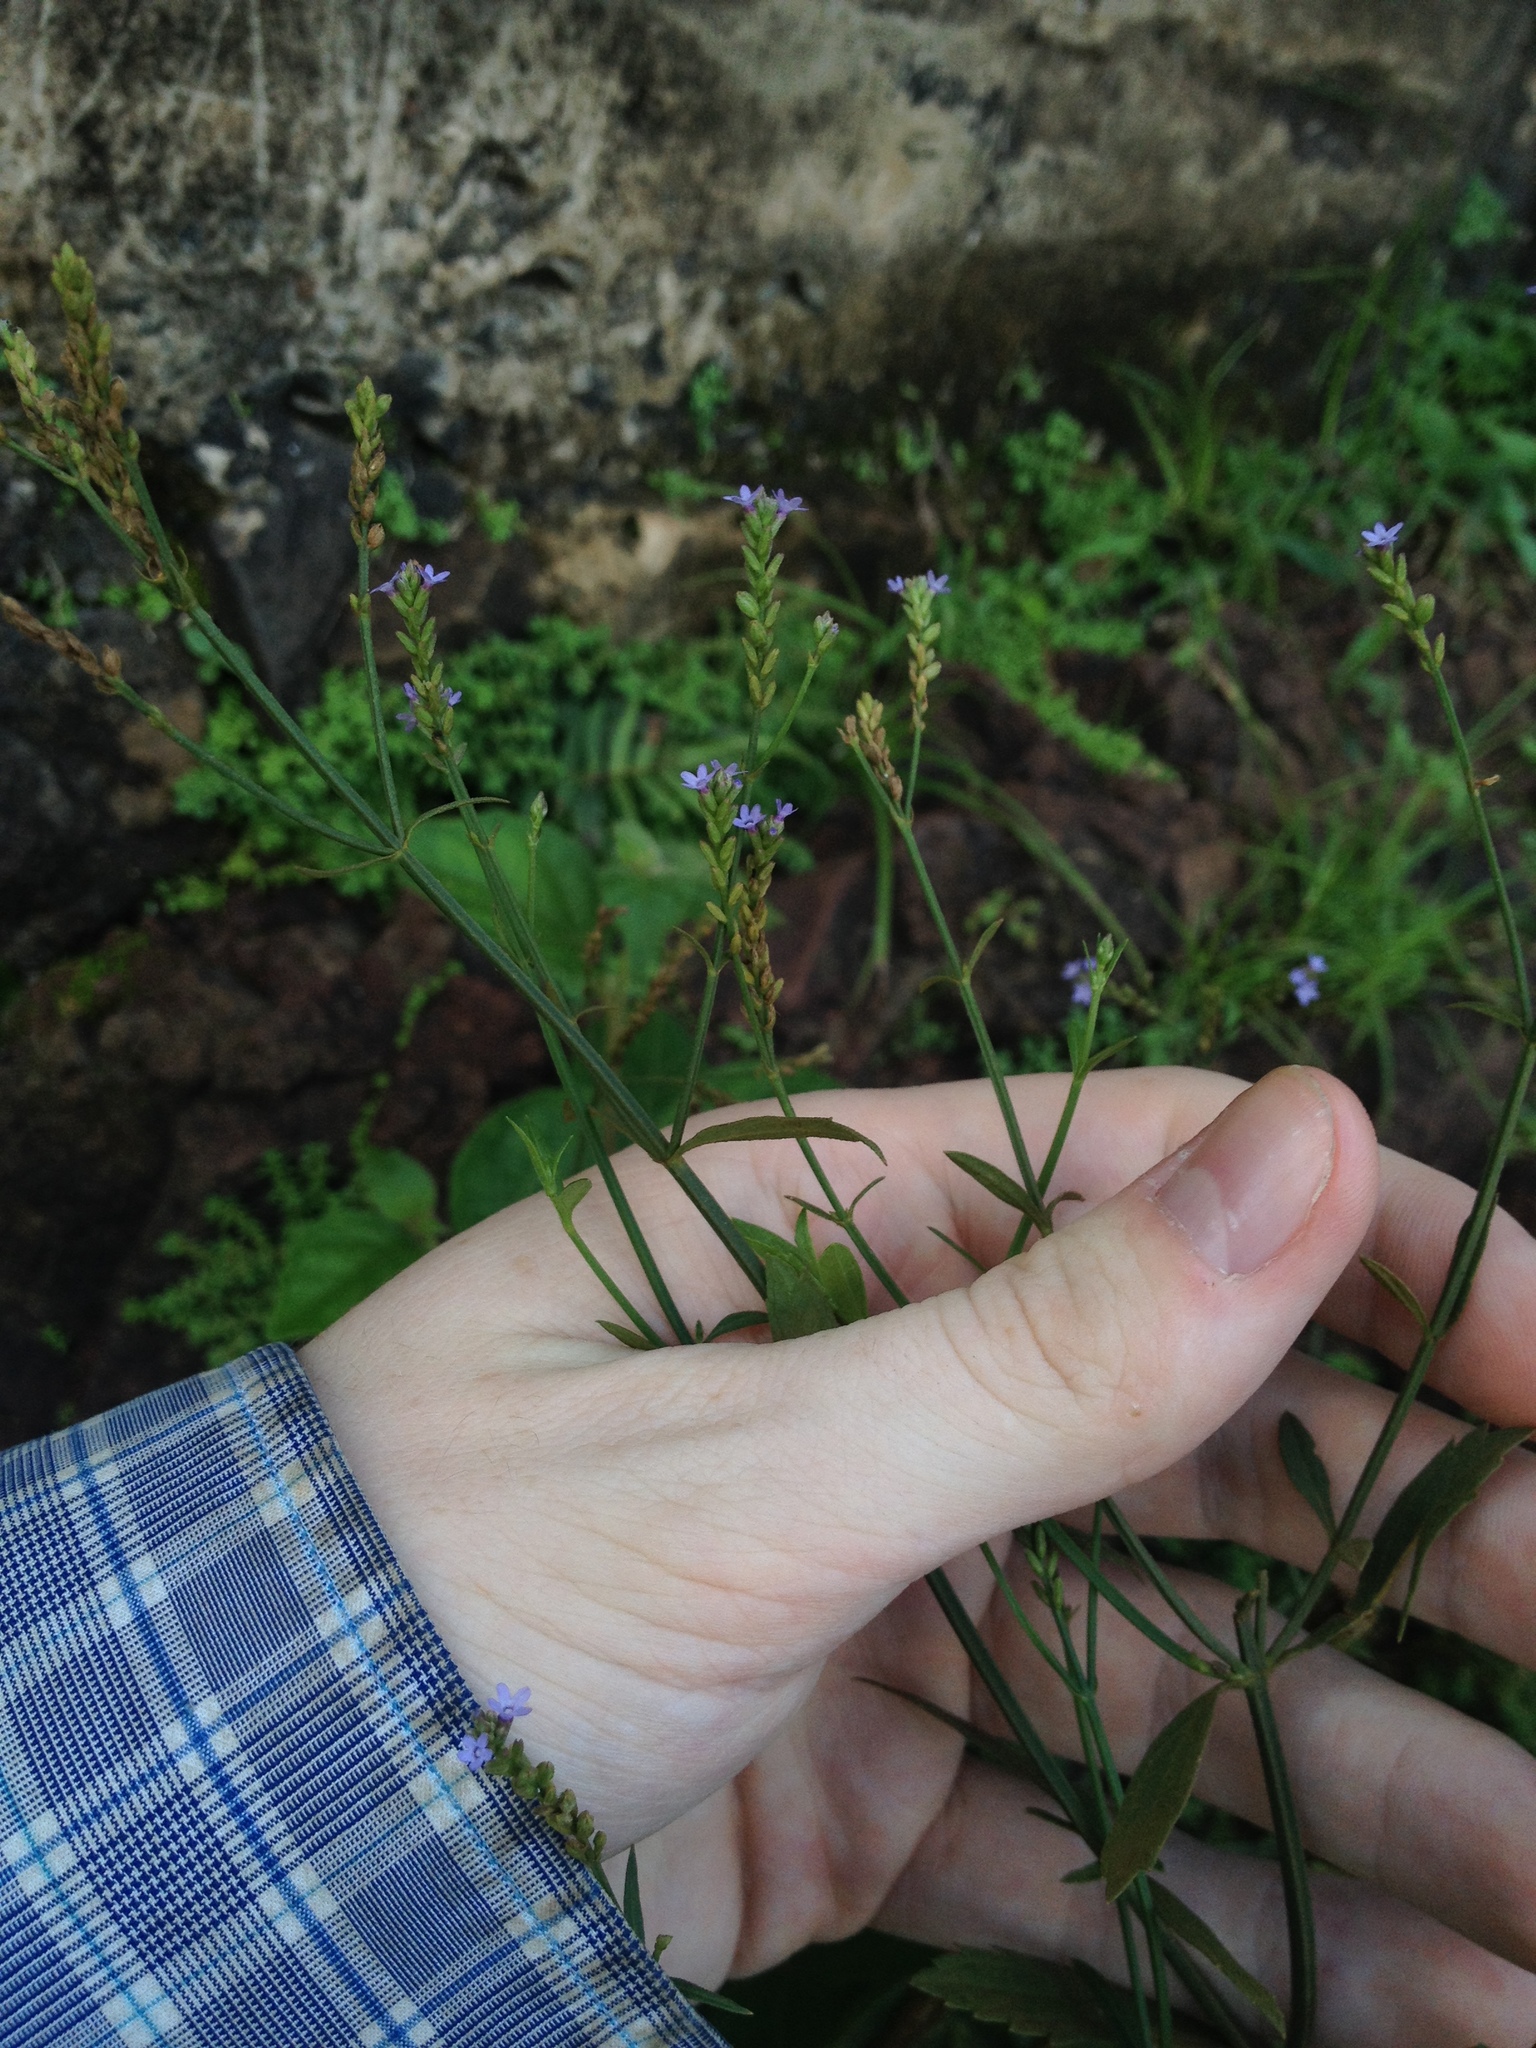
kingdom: Plantae
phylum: Tracheophyta
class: Magnoliopsida
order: Lamiales
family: Verbenaceae
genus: Verbena
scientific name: Verbena litoralis
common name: Seashore vervain
